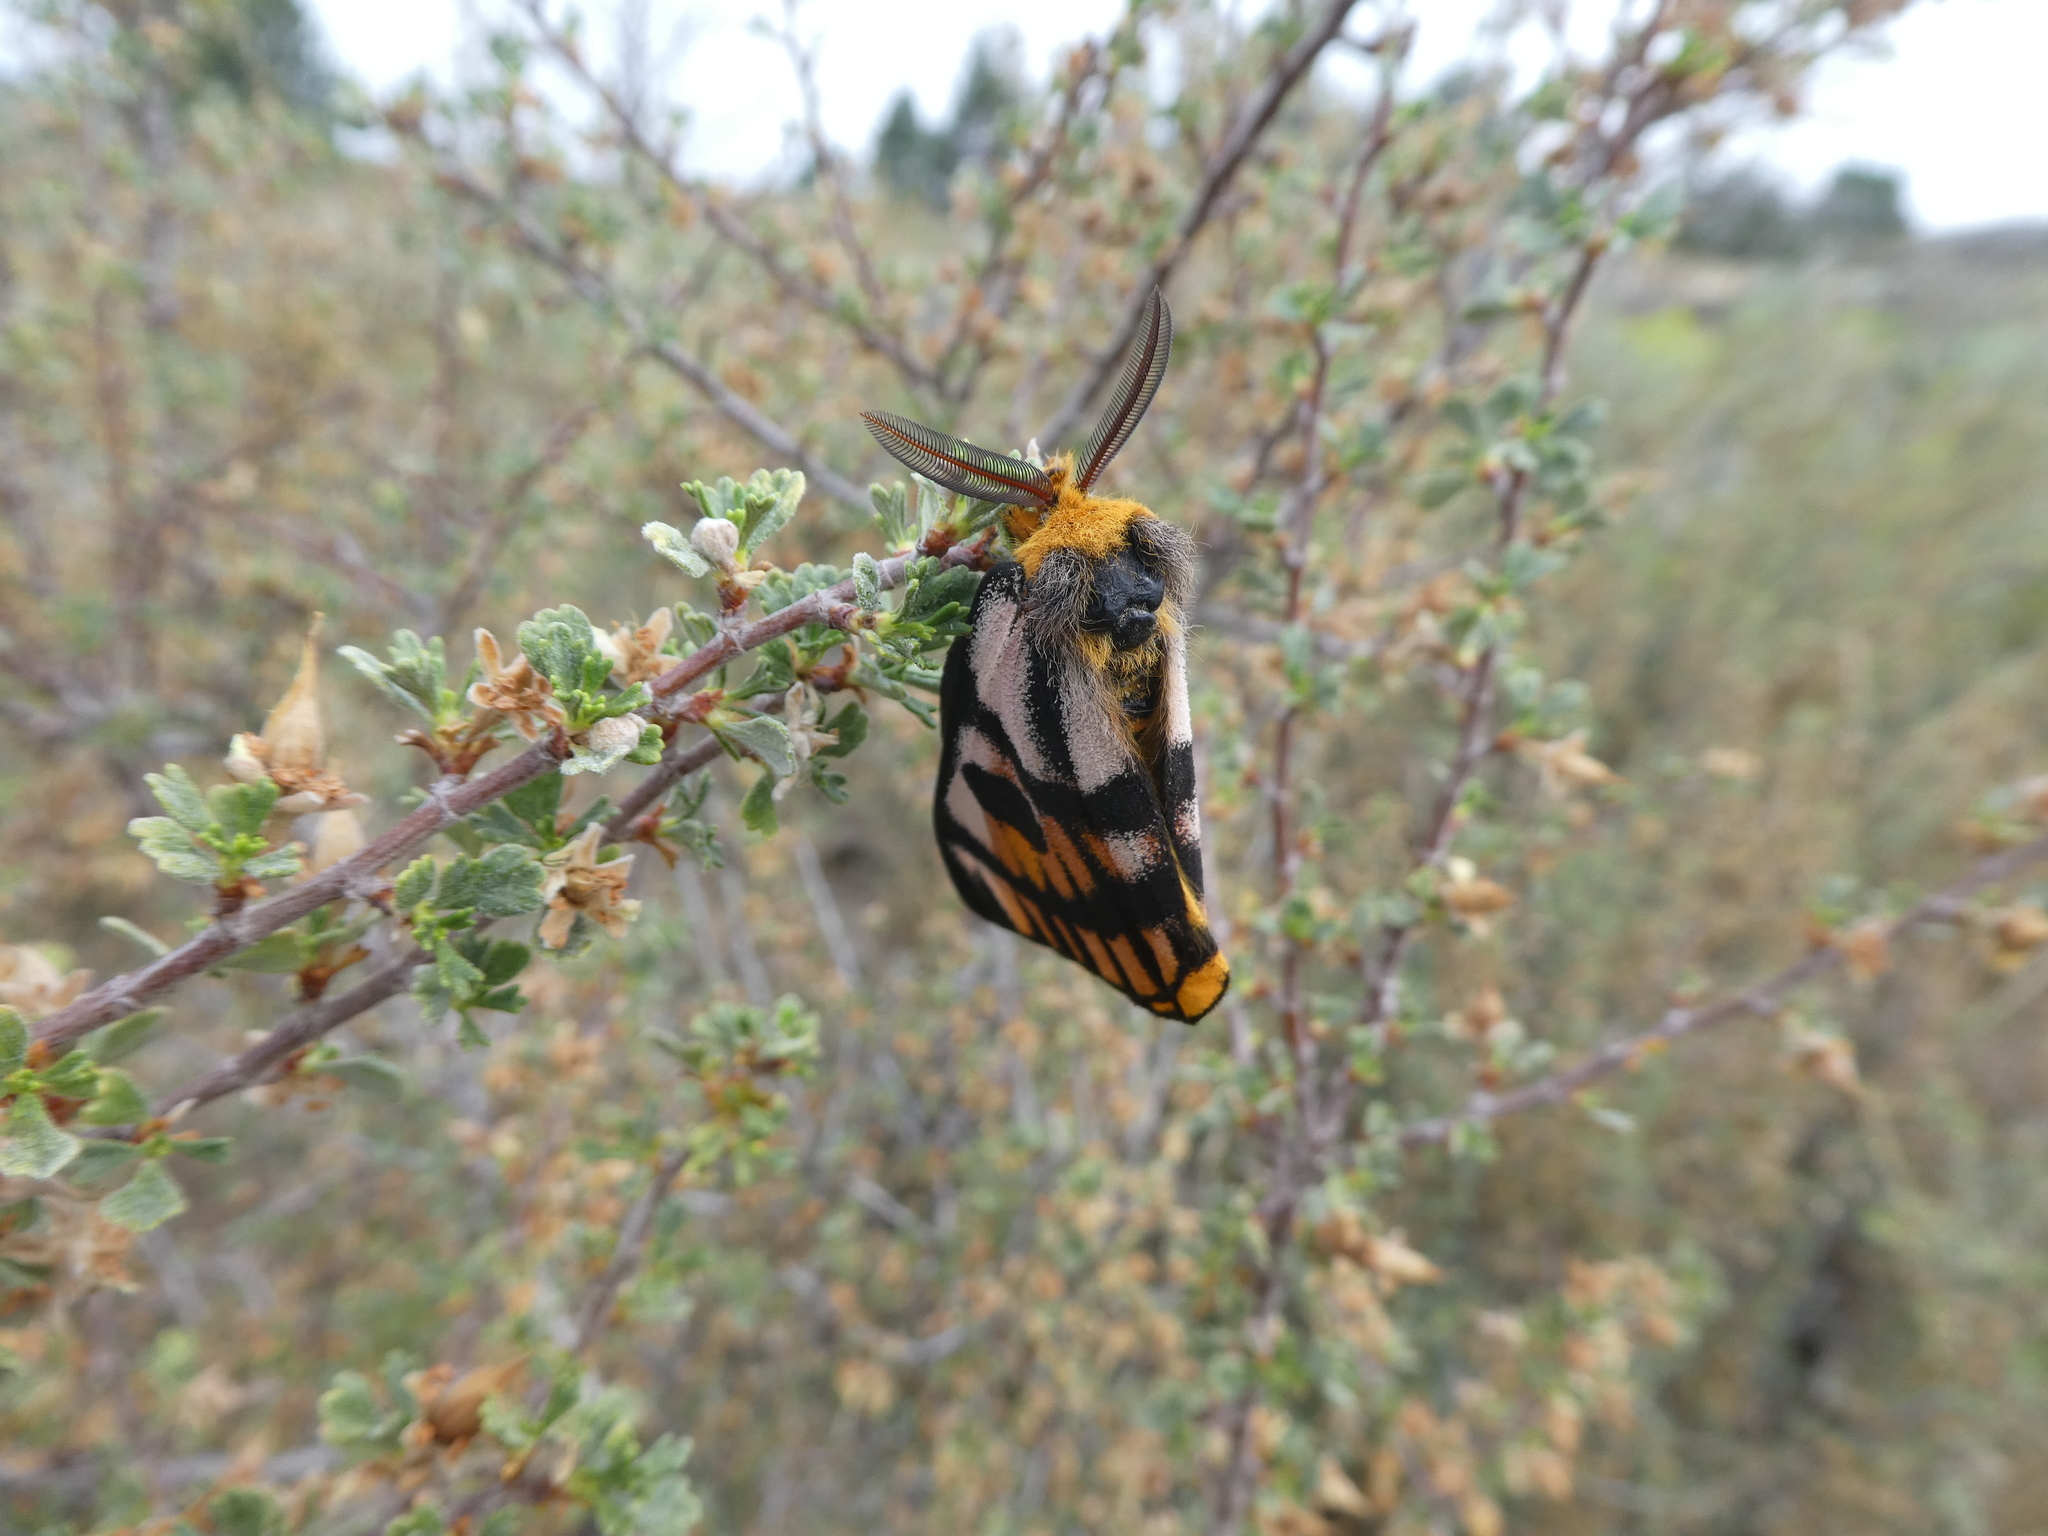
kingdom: Animalia
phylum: Arthropoda
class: Insecta
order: Lepidoptera
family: Saturniidae
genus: Hemileuca
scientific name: Hemileuca eglanterina
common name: Western sheepmoth
